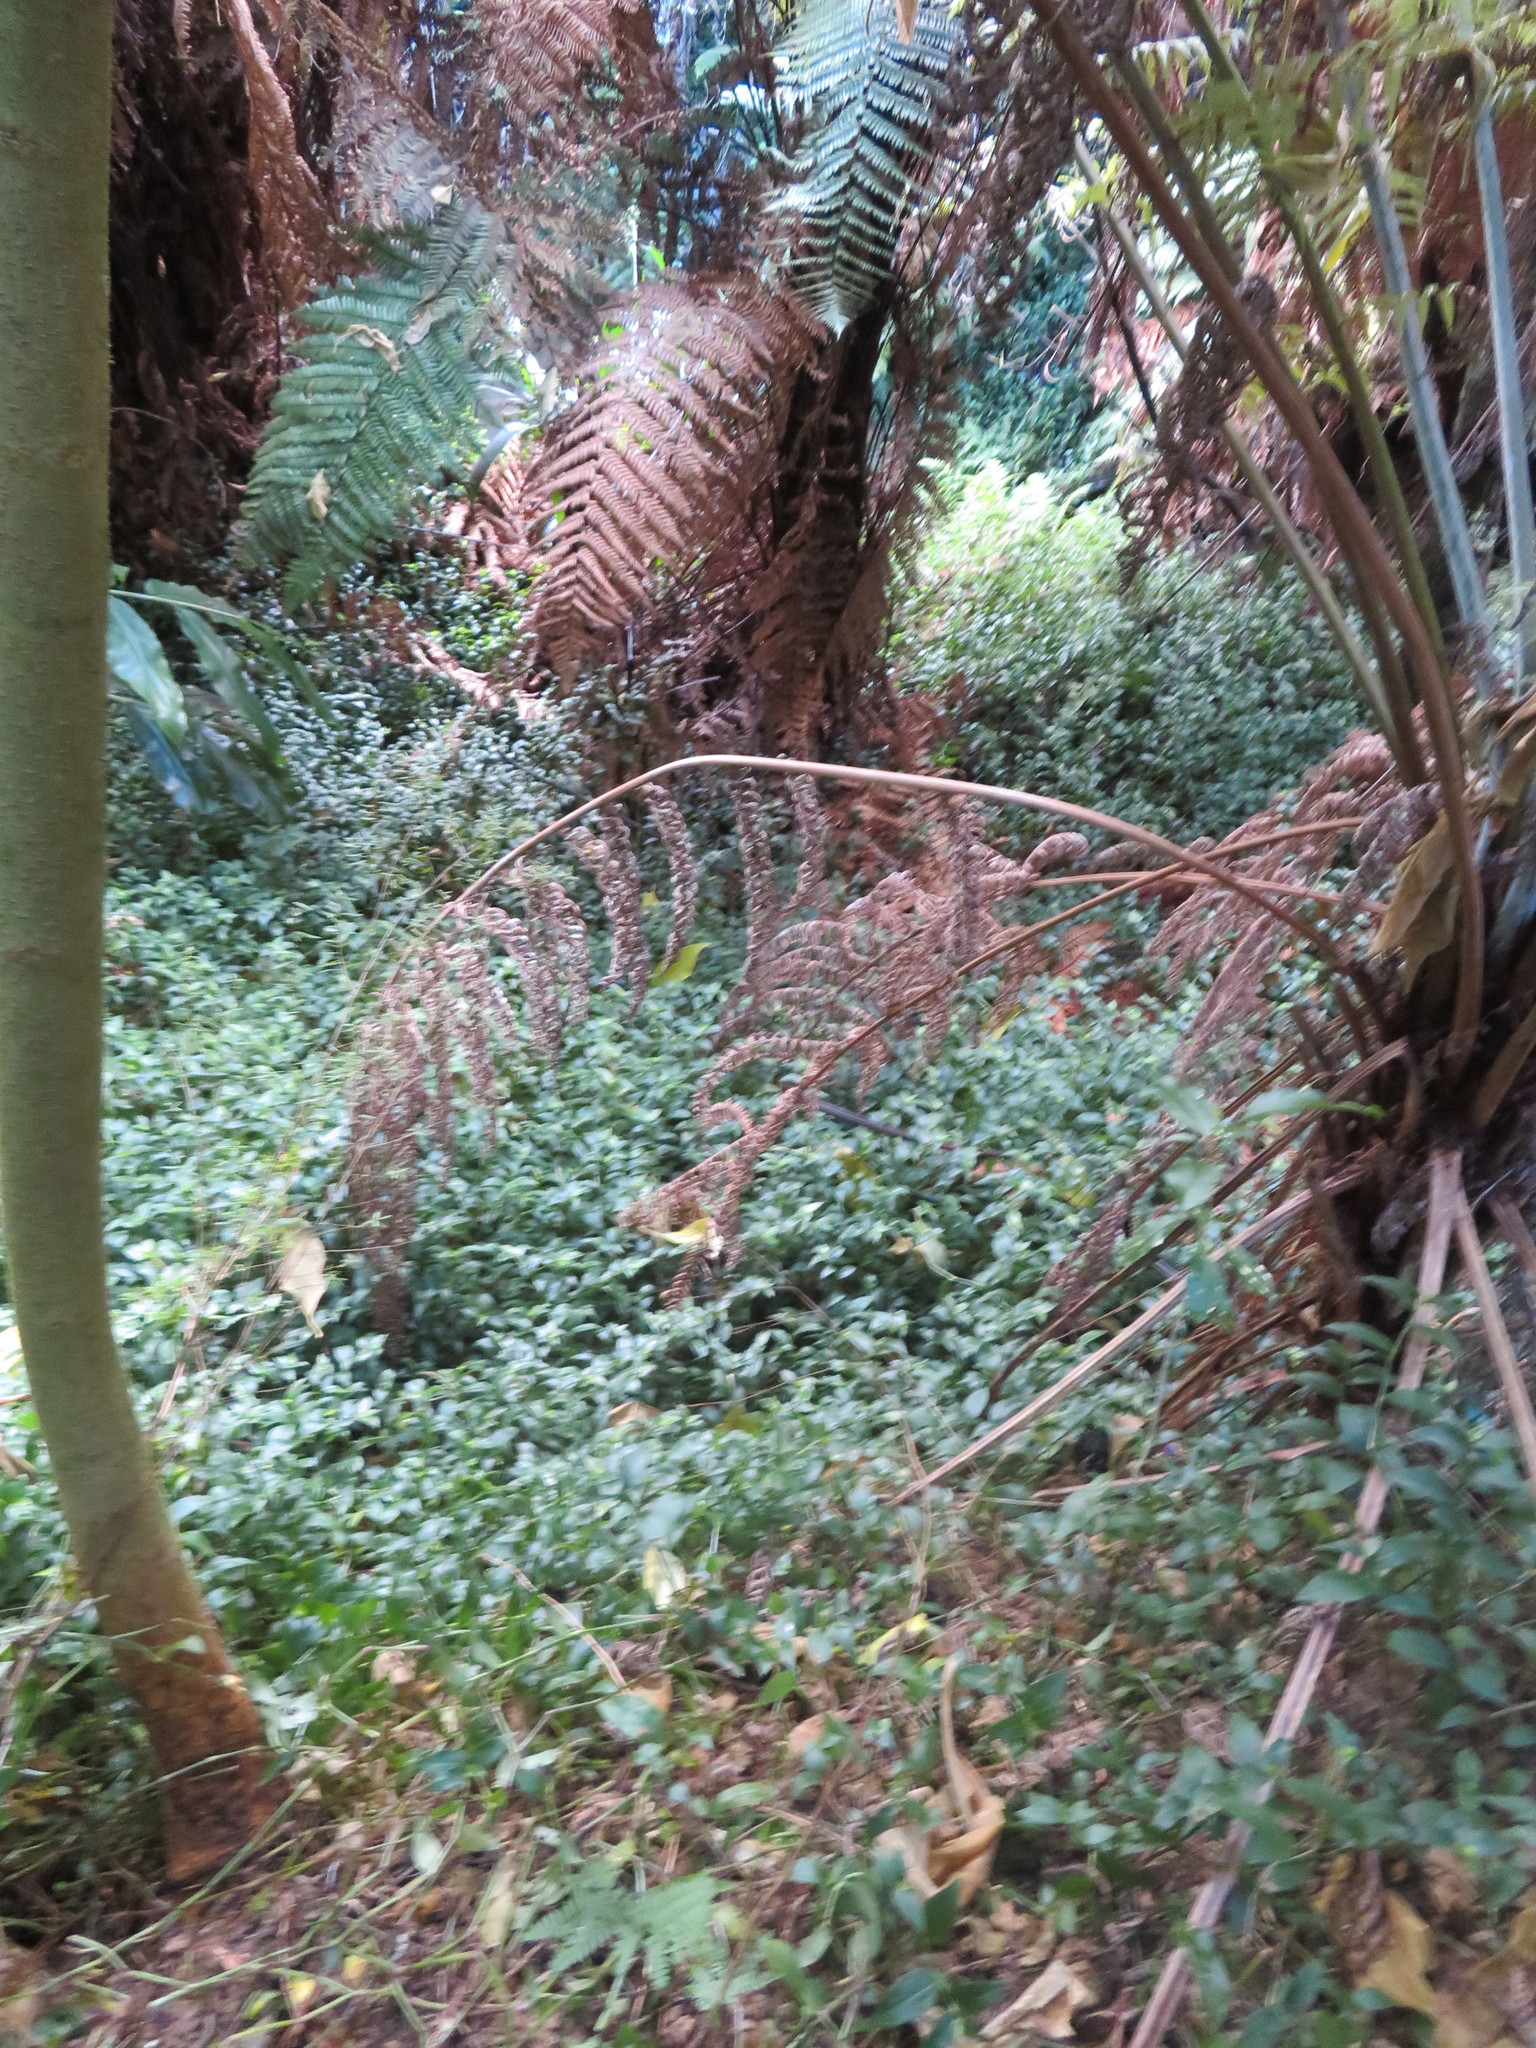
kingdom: Plantae
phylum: Tracheophyta
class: Polypodiopsida
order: Cyatheales
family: Dicksoniaceae
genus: Dicksonia
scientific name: Dicksonia squarrosa
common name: Hard treefern
